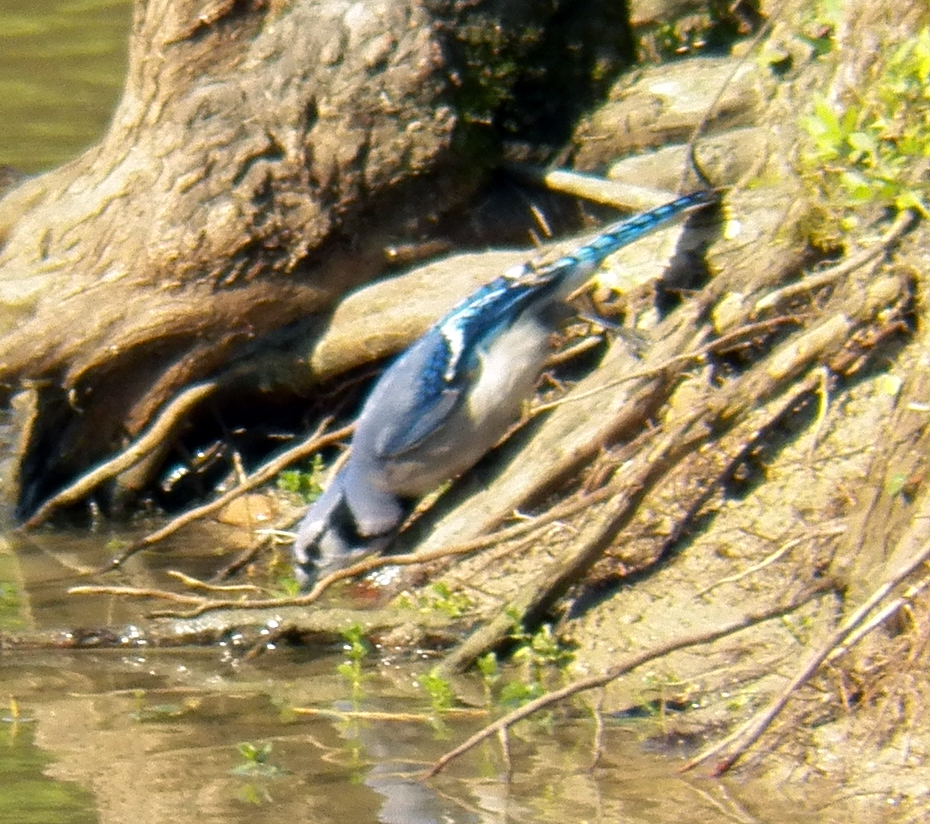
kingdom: Animalia
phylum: Chordata
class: Aves
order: Passeriformes
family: Corvidae
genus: Cyanocitta
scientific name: Cyanocitta cristata
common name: Blue jay
